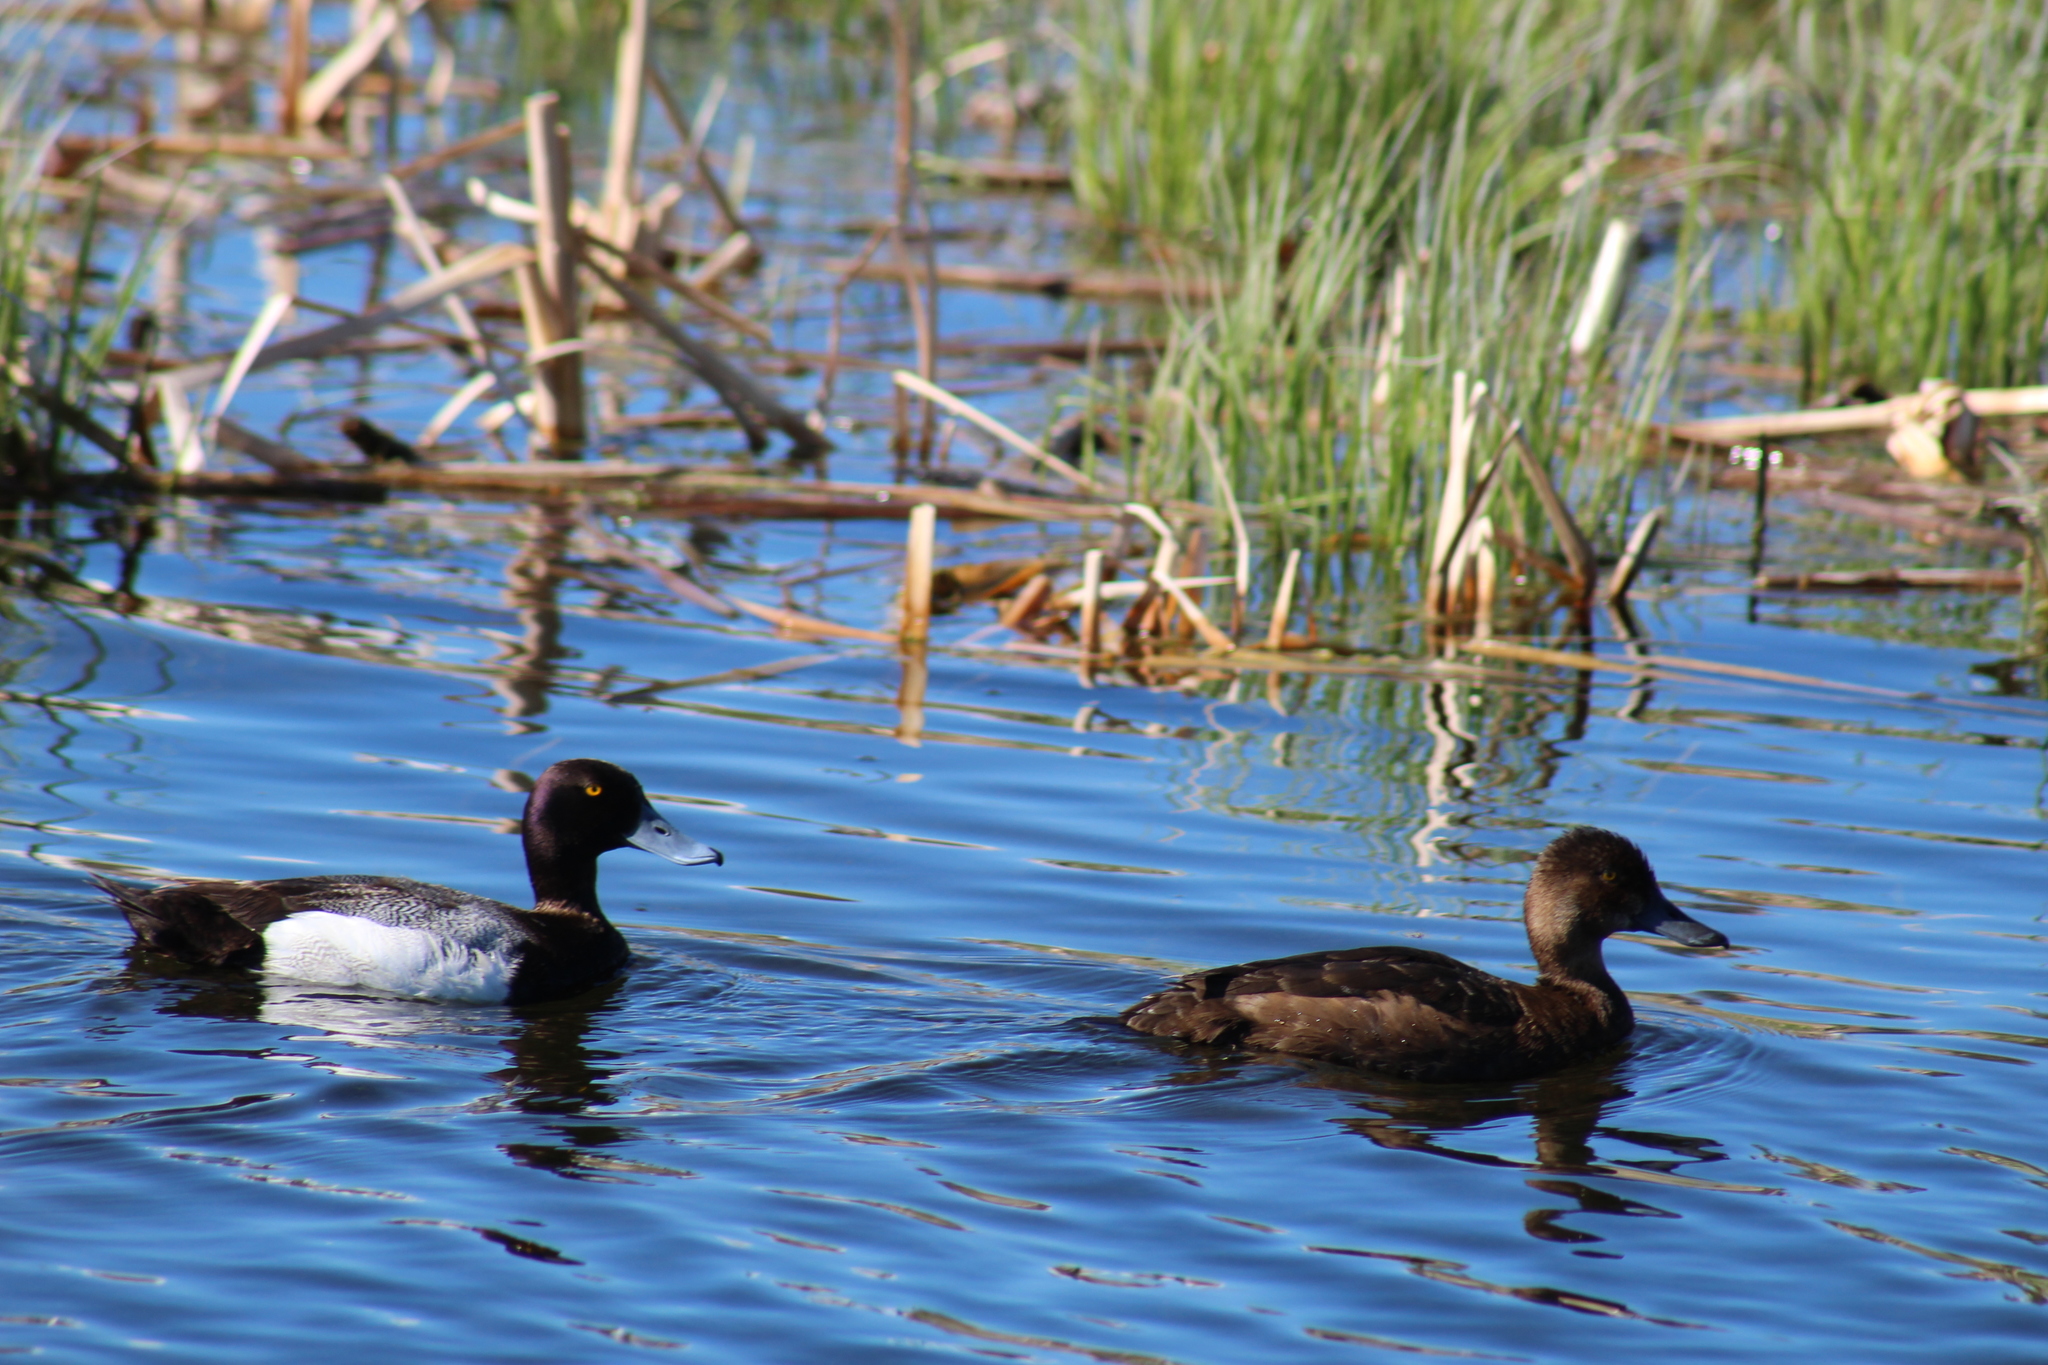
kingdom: Animalia
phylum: Chordata
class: Aves
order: Anseriformes
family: Anatidae
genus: Aythya
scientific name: Aythya affinis
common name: Lesser scaup
